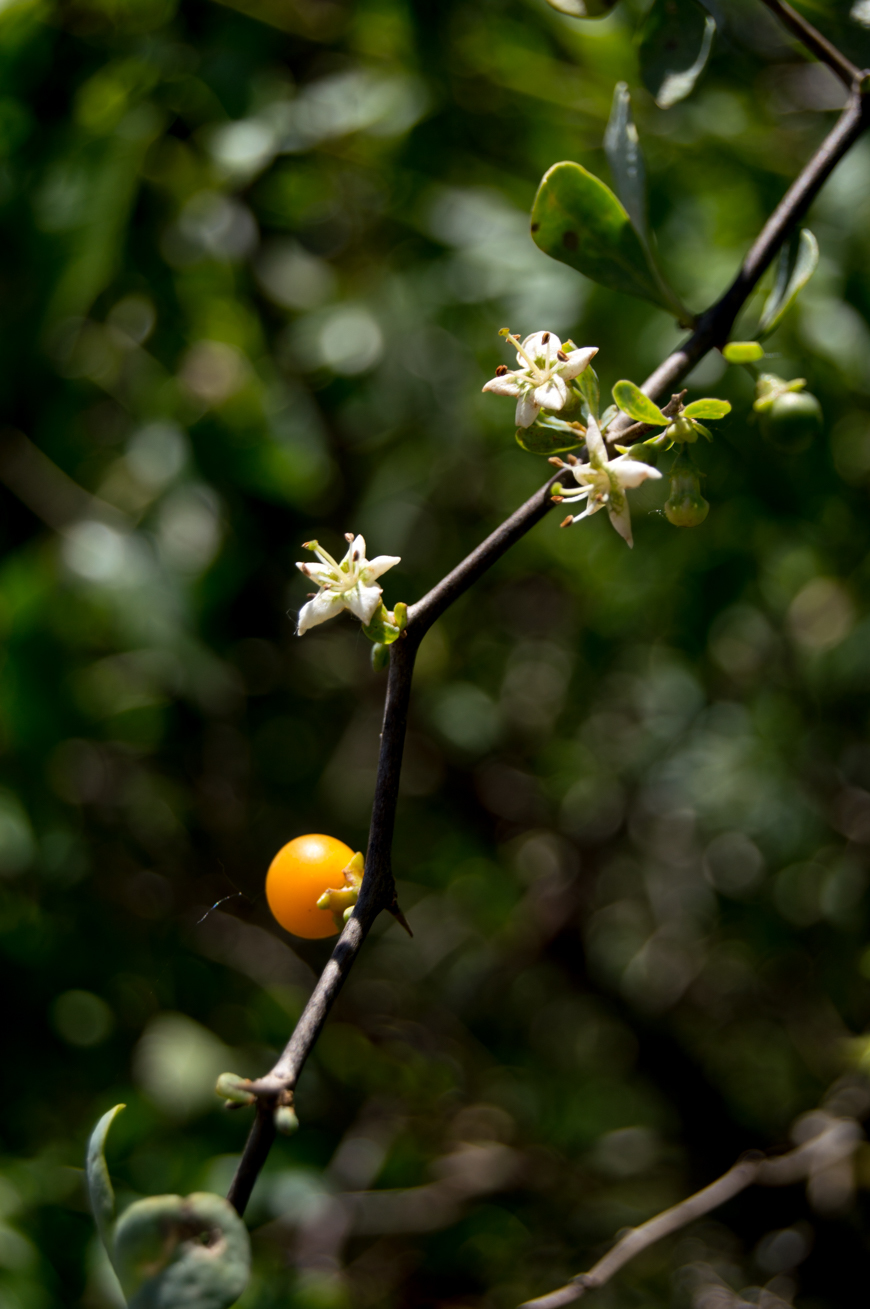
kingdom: Plantae
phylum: Tracheophyta
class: Magnoliopsida
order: Solanales
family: Solanaceae
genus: Lycium
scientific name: Lycium boerhaaviifolium
